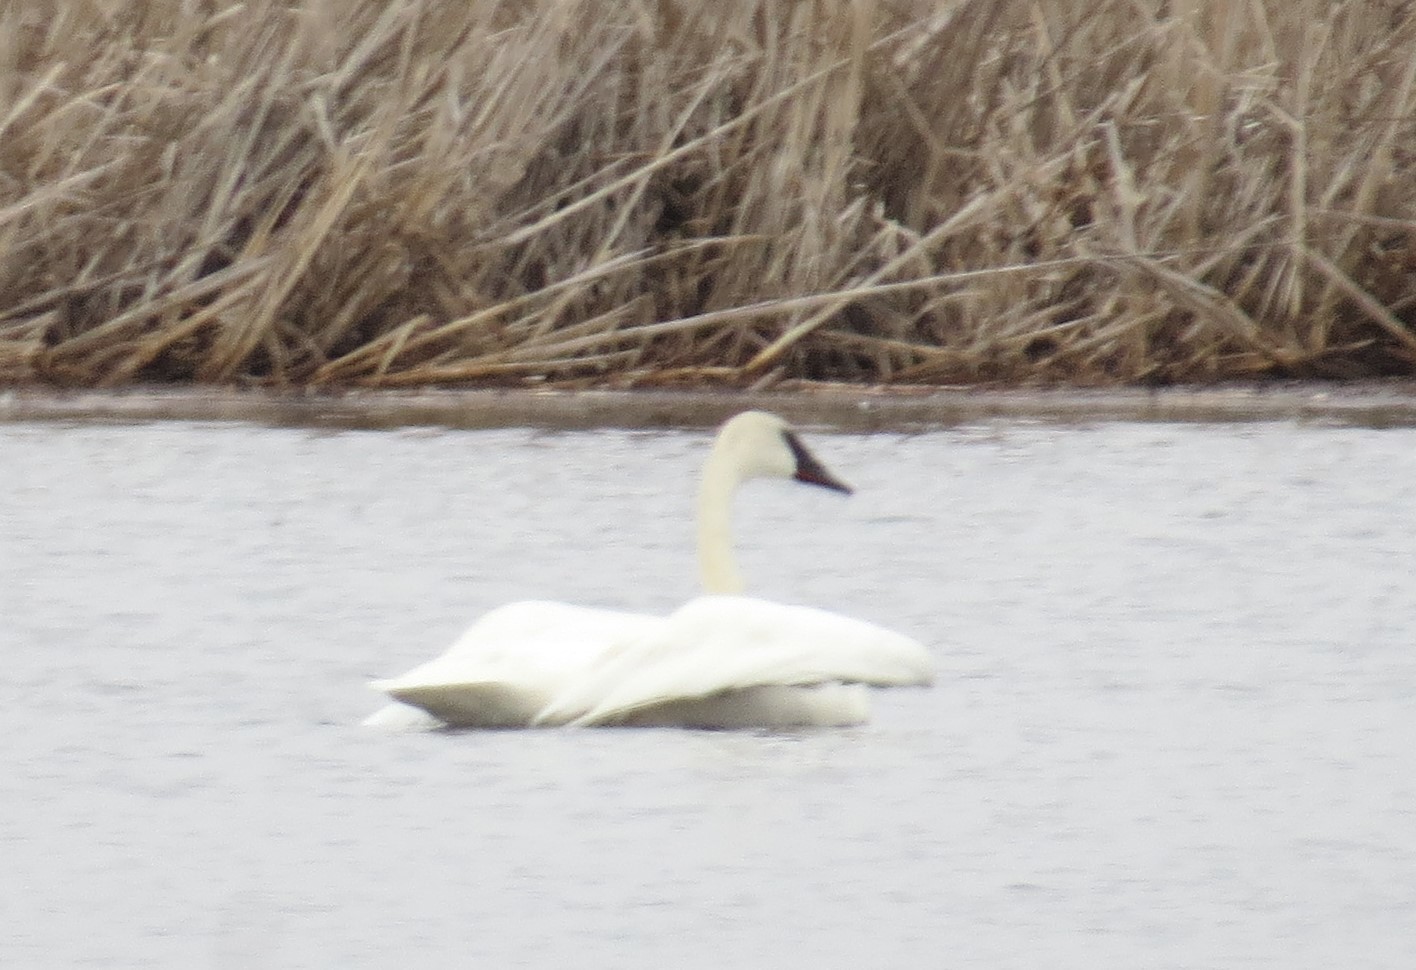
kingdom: Animalia
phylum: Chordata
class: Aves
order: Anseriformes
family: Anatidae
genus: Cygnus
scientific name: Cygnus buccinator
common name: Trumpeter swan
